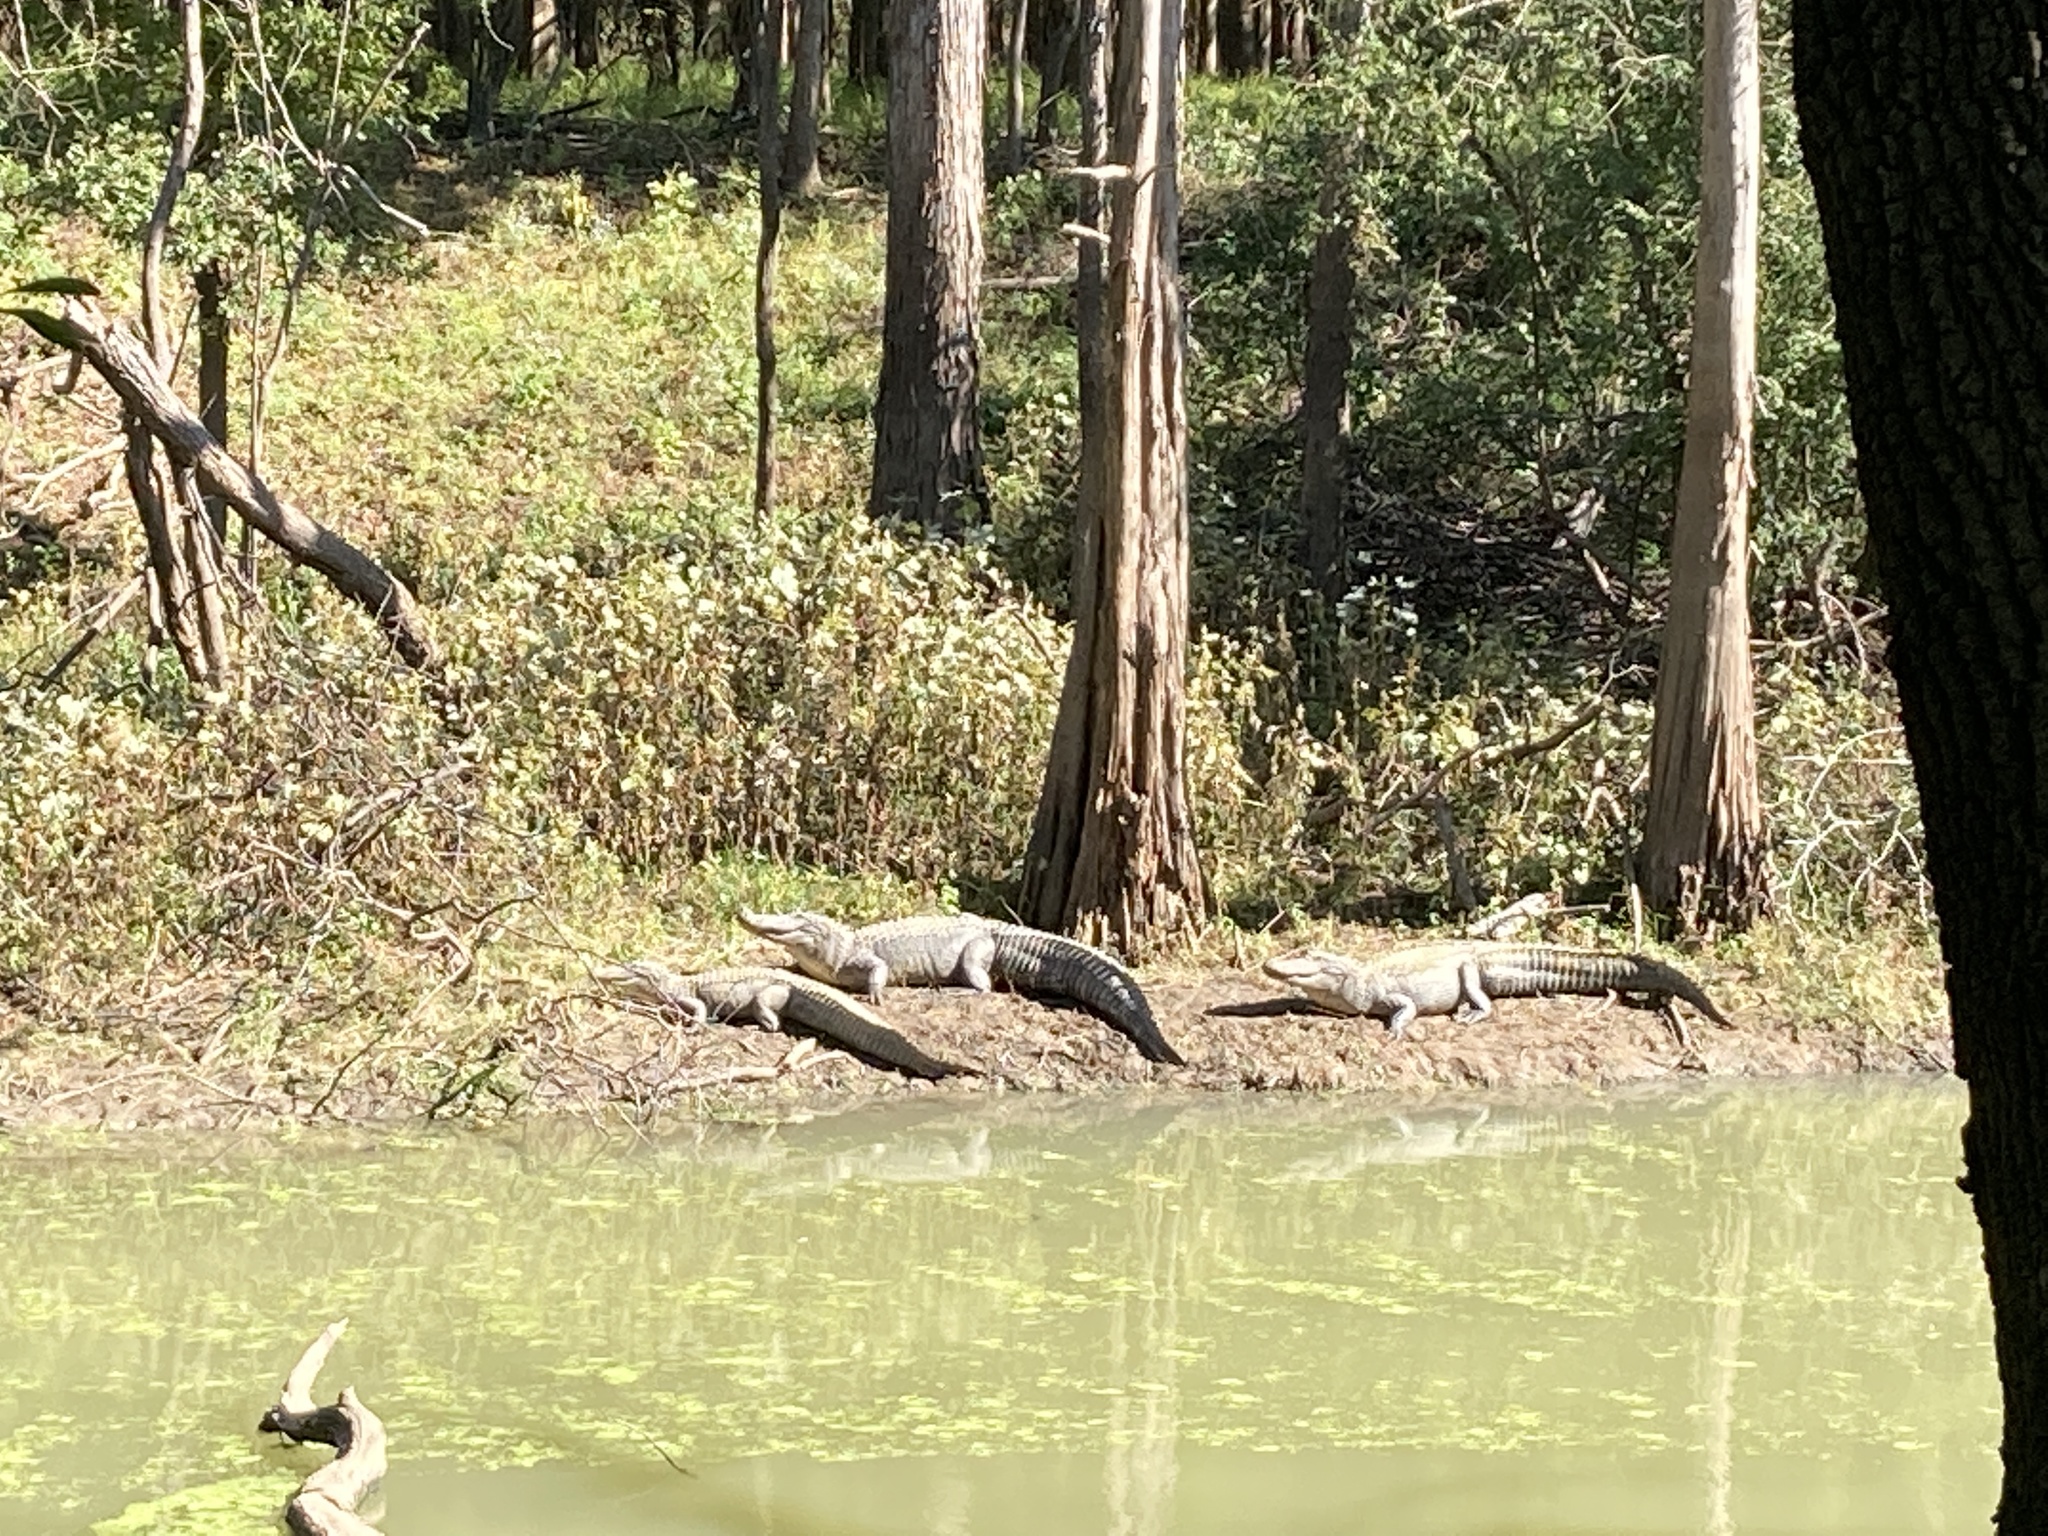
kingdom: Animalia
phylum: Chordata
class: Crocodylia
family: Alligatoridae
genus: Alligator
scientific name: Alligator mississippiensis
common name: American alligator
